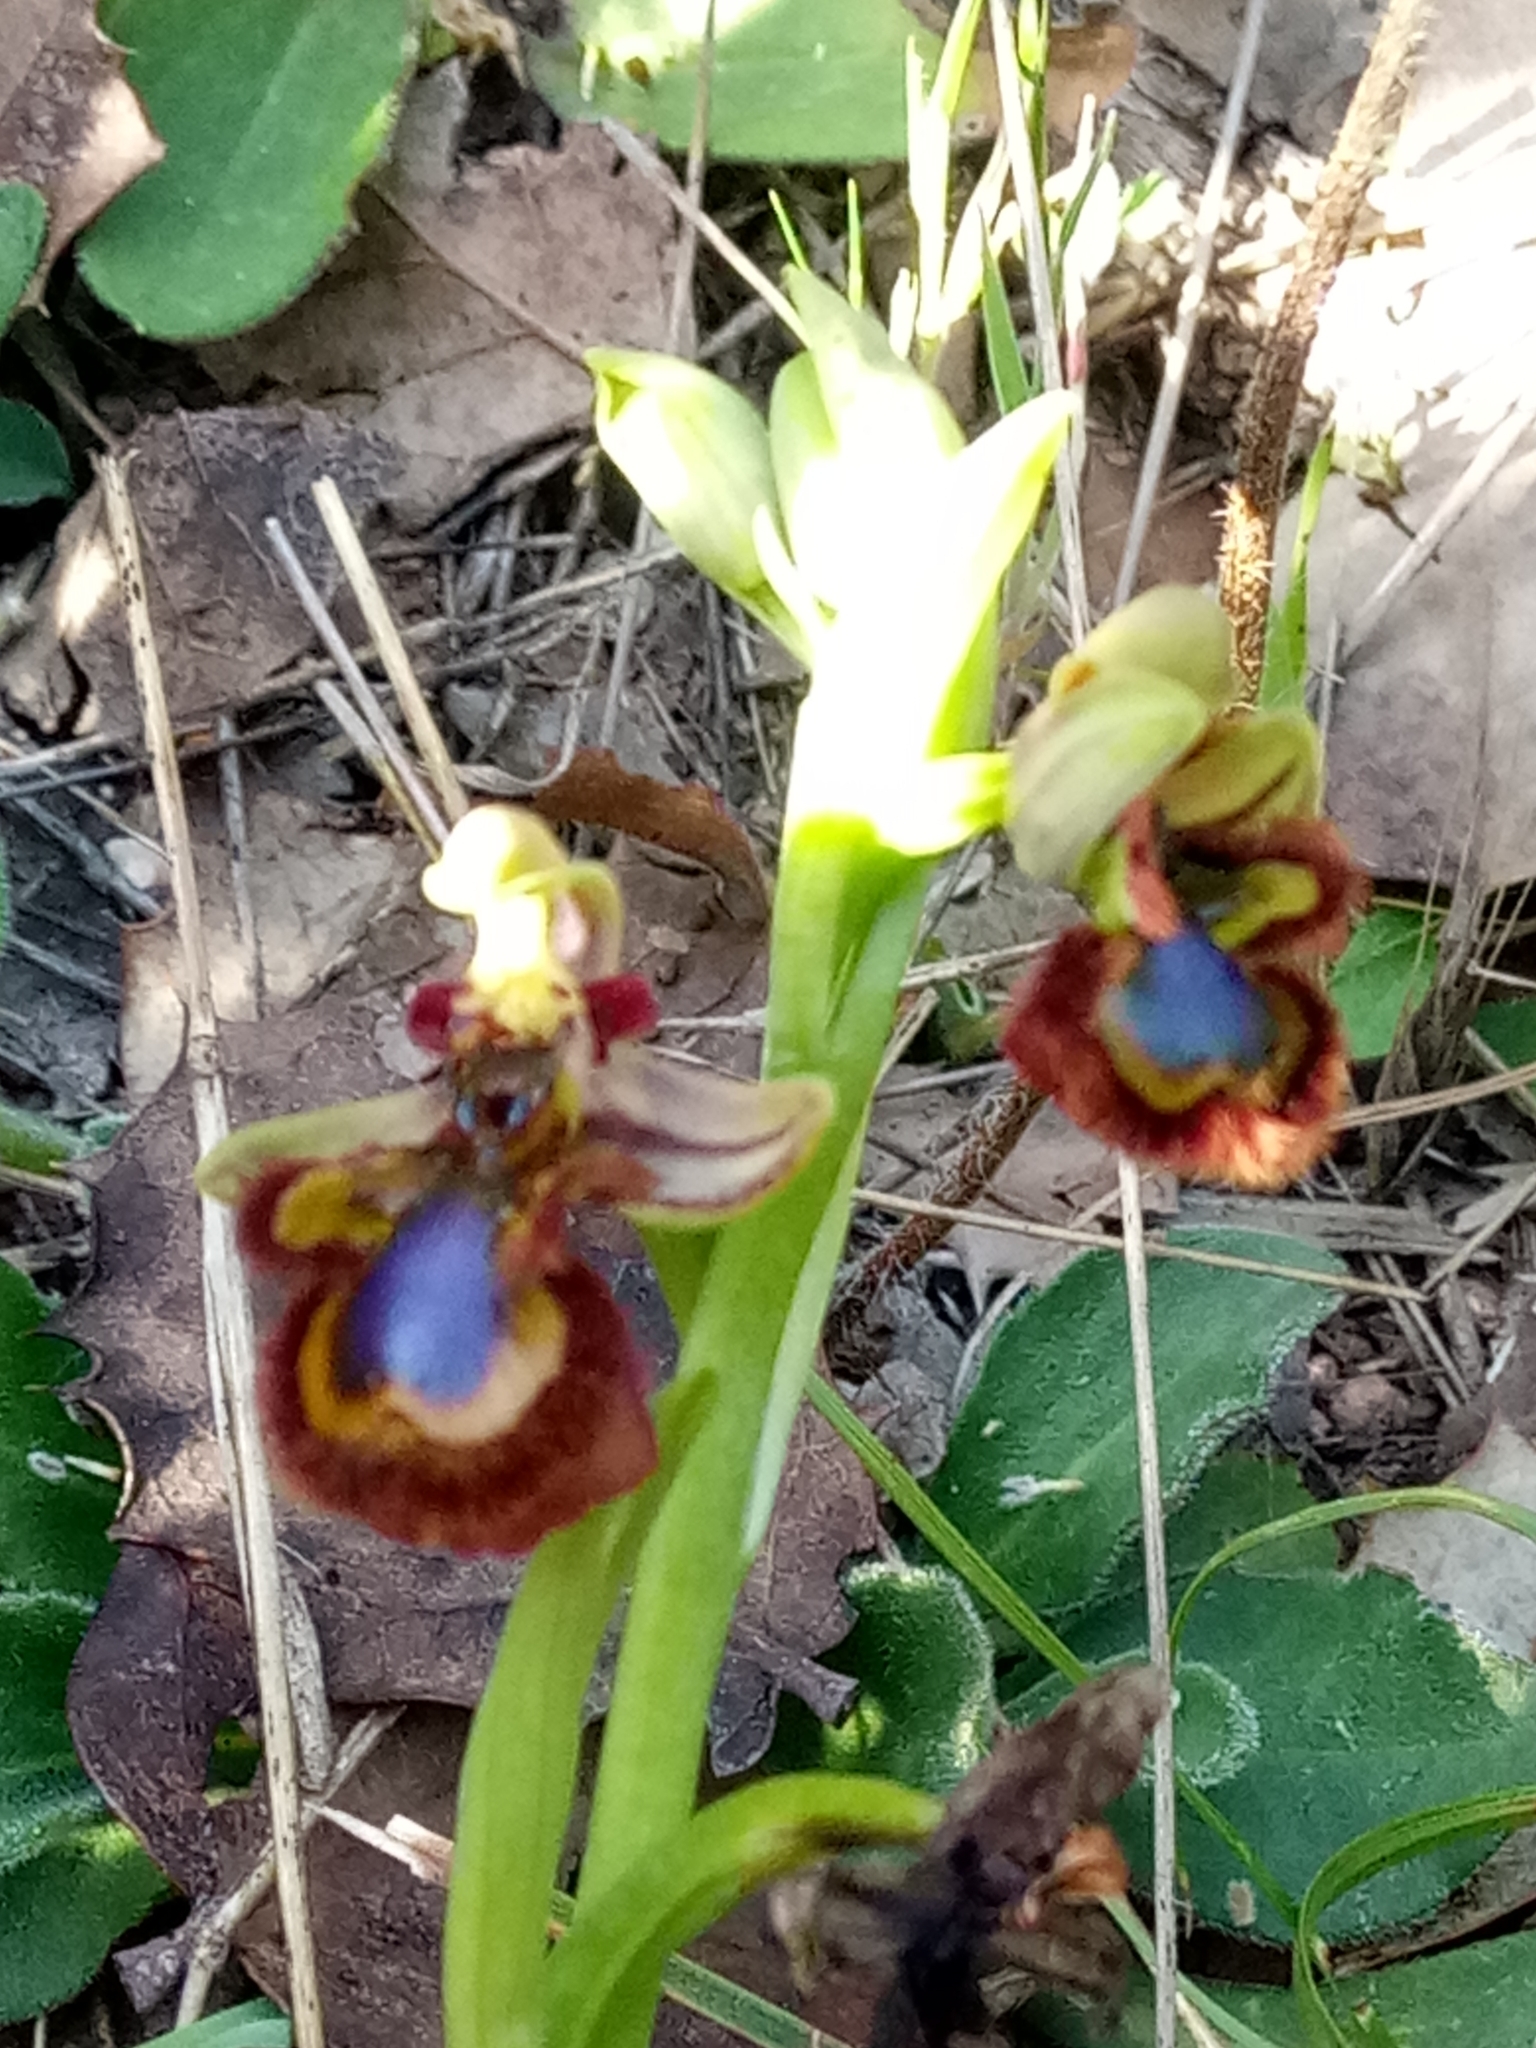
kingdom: Plantae
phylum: Tracheophyta
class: Liliopsida
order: Asparagales
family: Orchidaceae
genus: Ophrys
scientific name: Ophrys speculum
